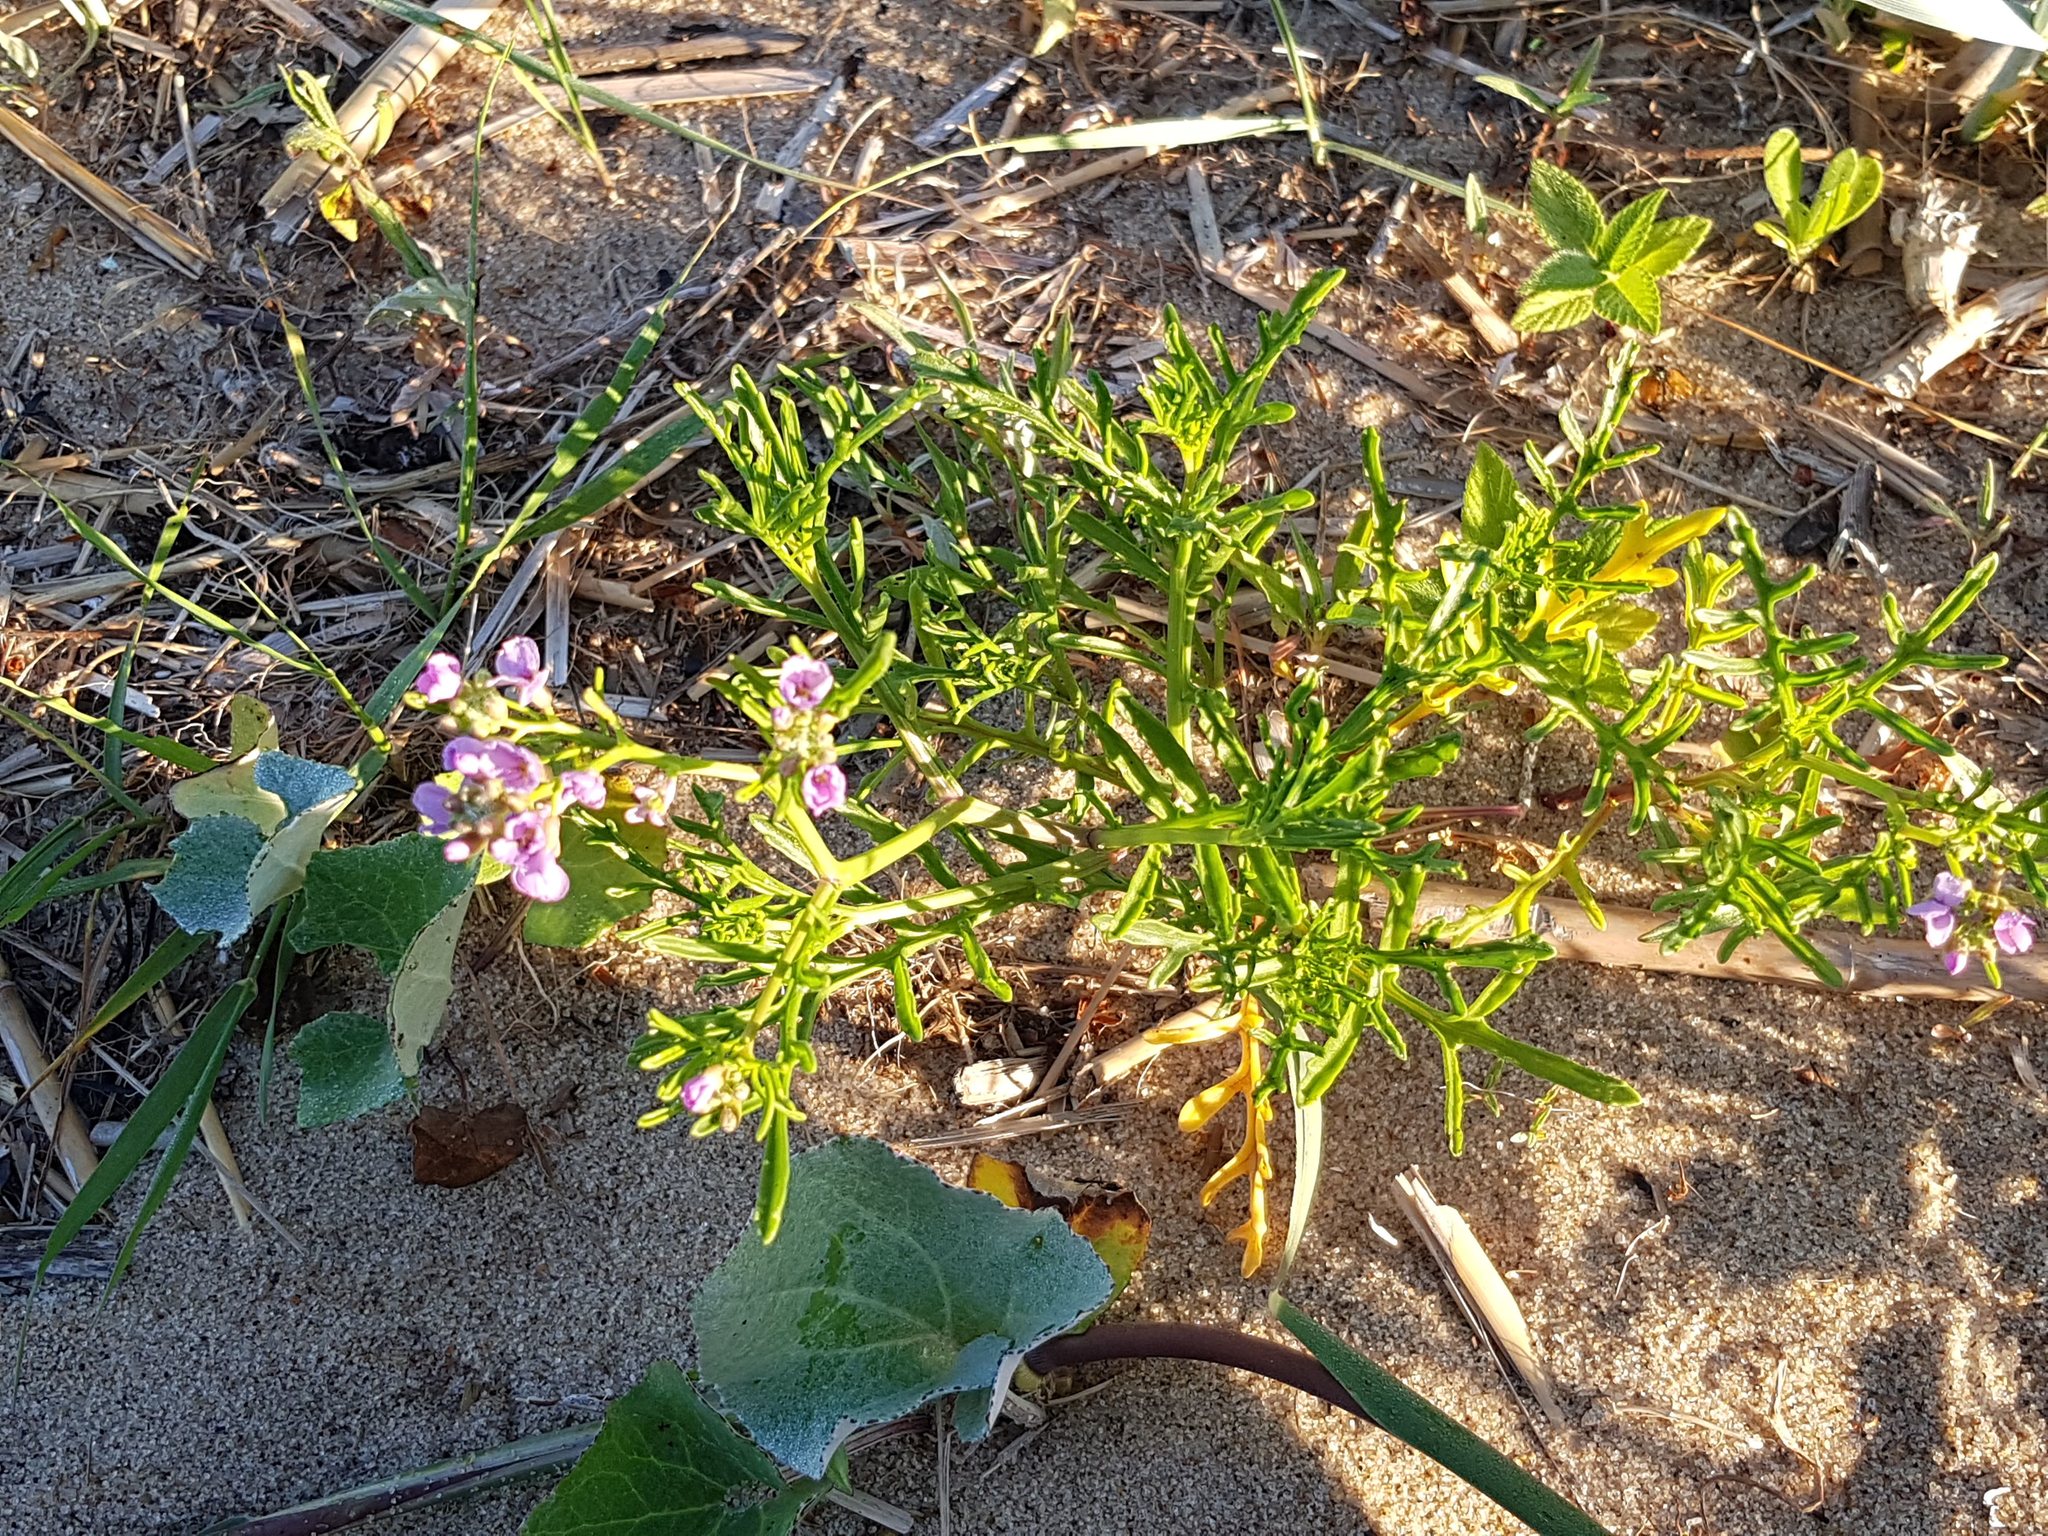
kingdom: Plantae
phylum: Tracheophyta
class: Magnoliopsida
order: Brassicales
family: Brassicaceae
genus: Cakile
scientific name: Cakile maritima
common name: Sea rocket
